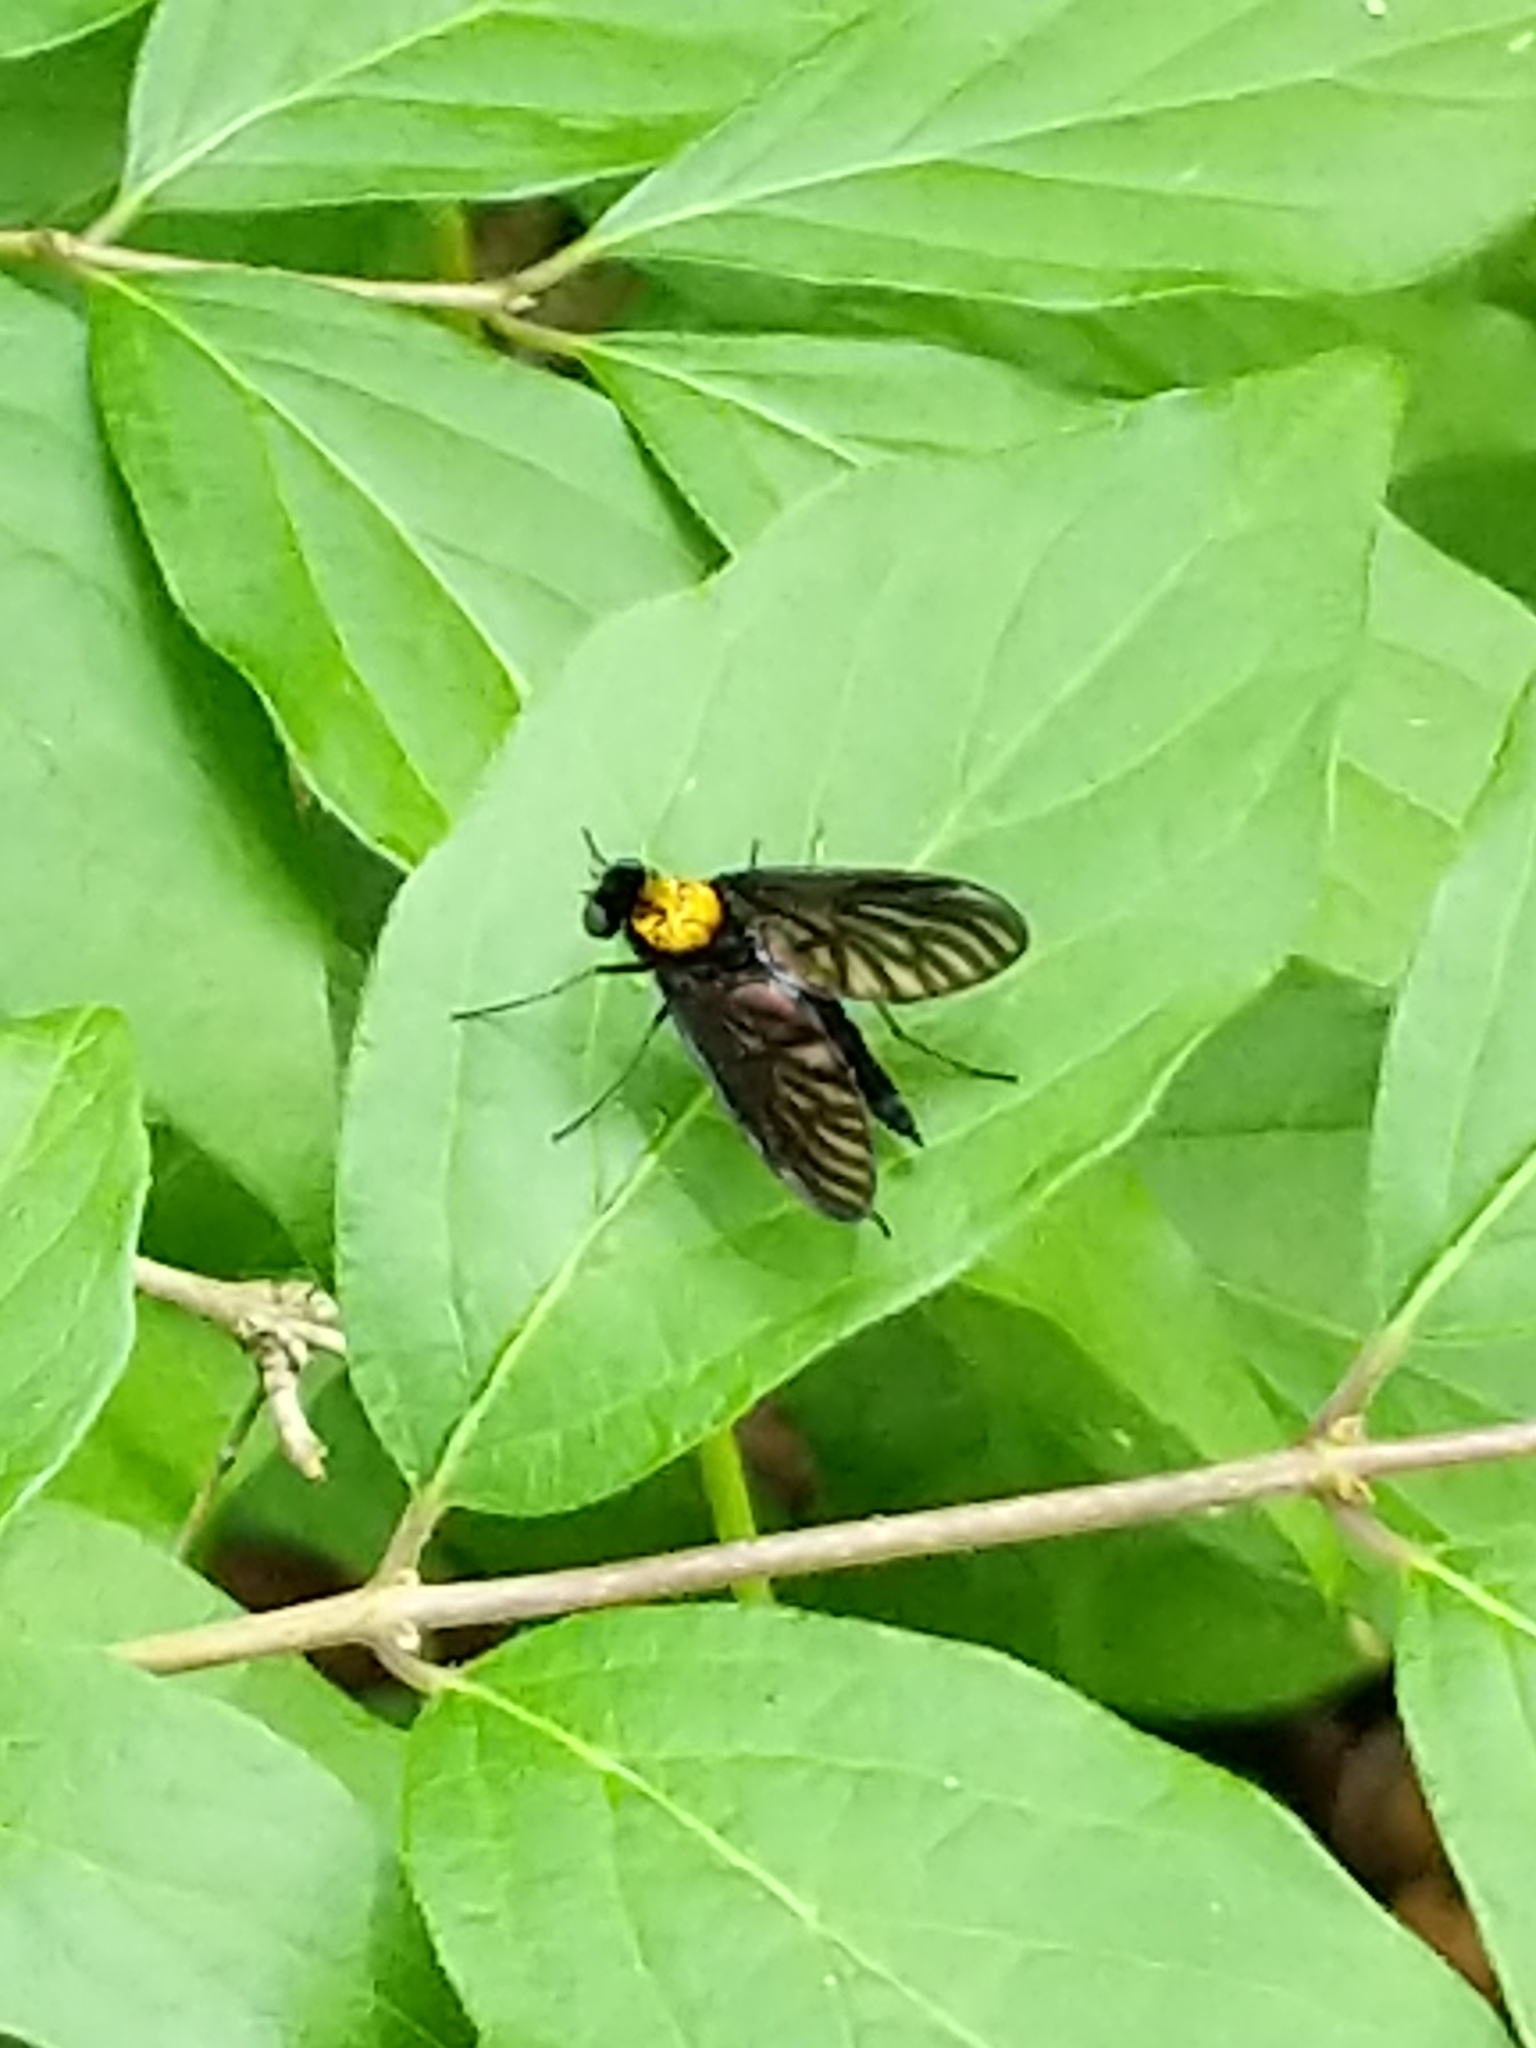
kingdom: Animalia
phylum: Arthropoda
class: Insecta
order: Diptera
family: Rhagionidae
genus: Chrysopilus
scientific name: Chrysopilus thoracicus
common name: Golden-backed snipe fly
